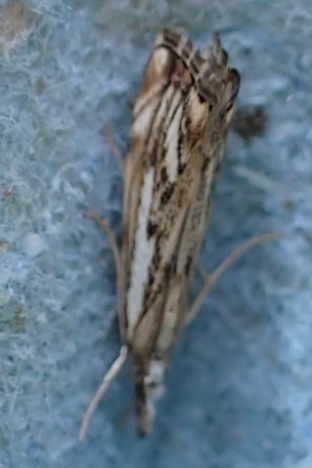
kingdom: Animalia
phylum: Arthropoda
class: Insecta
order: Lepidoptera
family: Crambidae
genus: Catoptria
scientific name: Catoptria falsella
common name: Chequered grass-veneer
